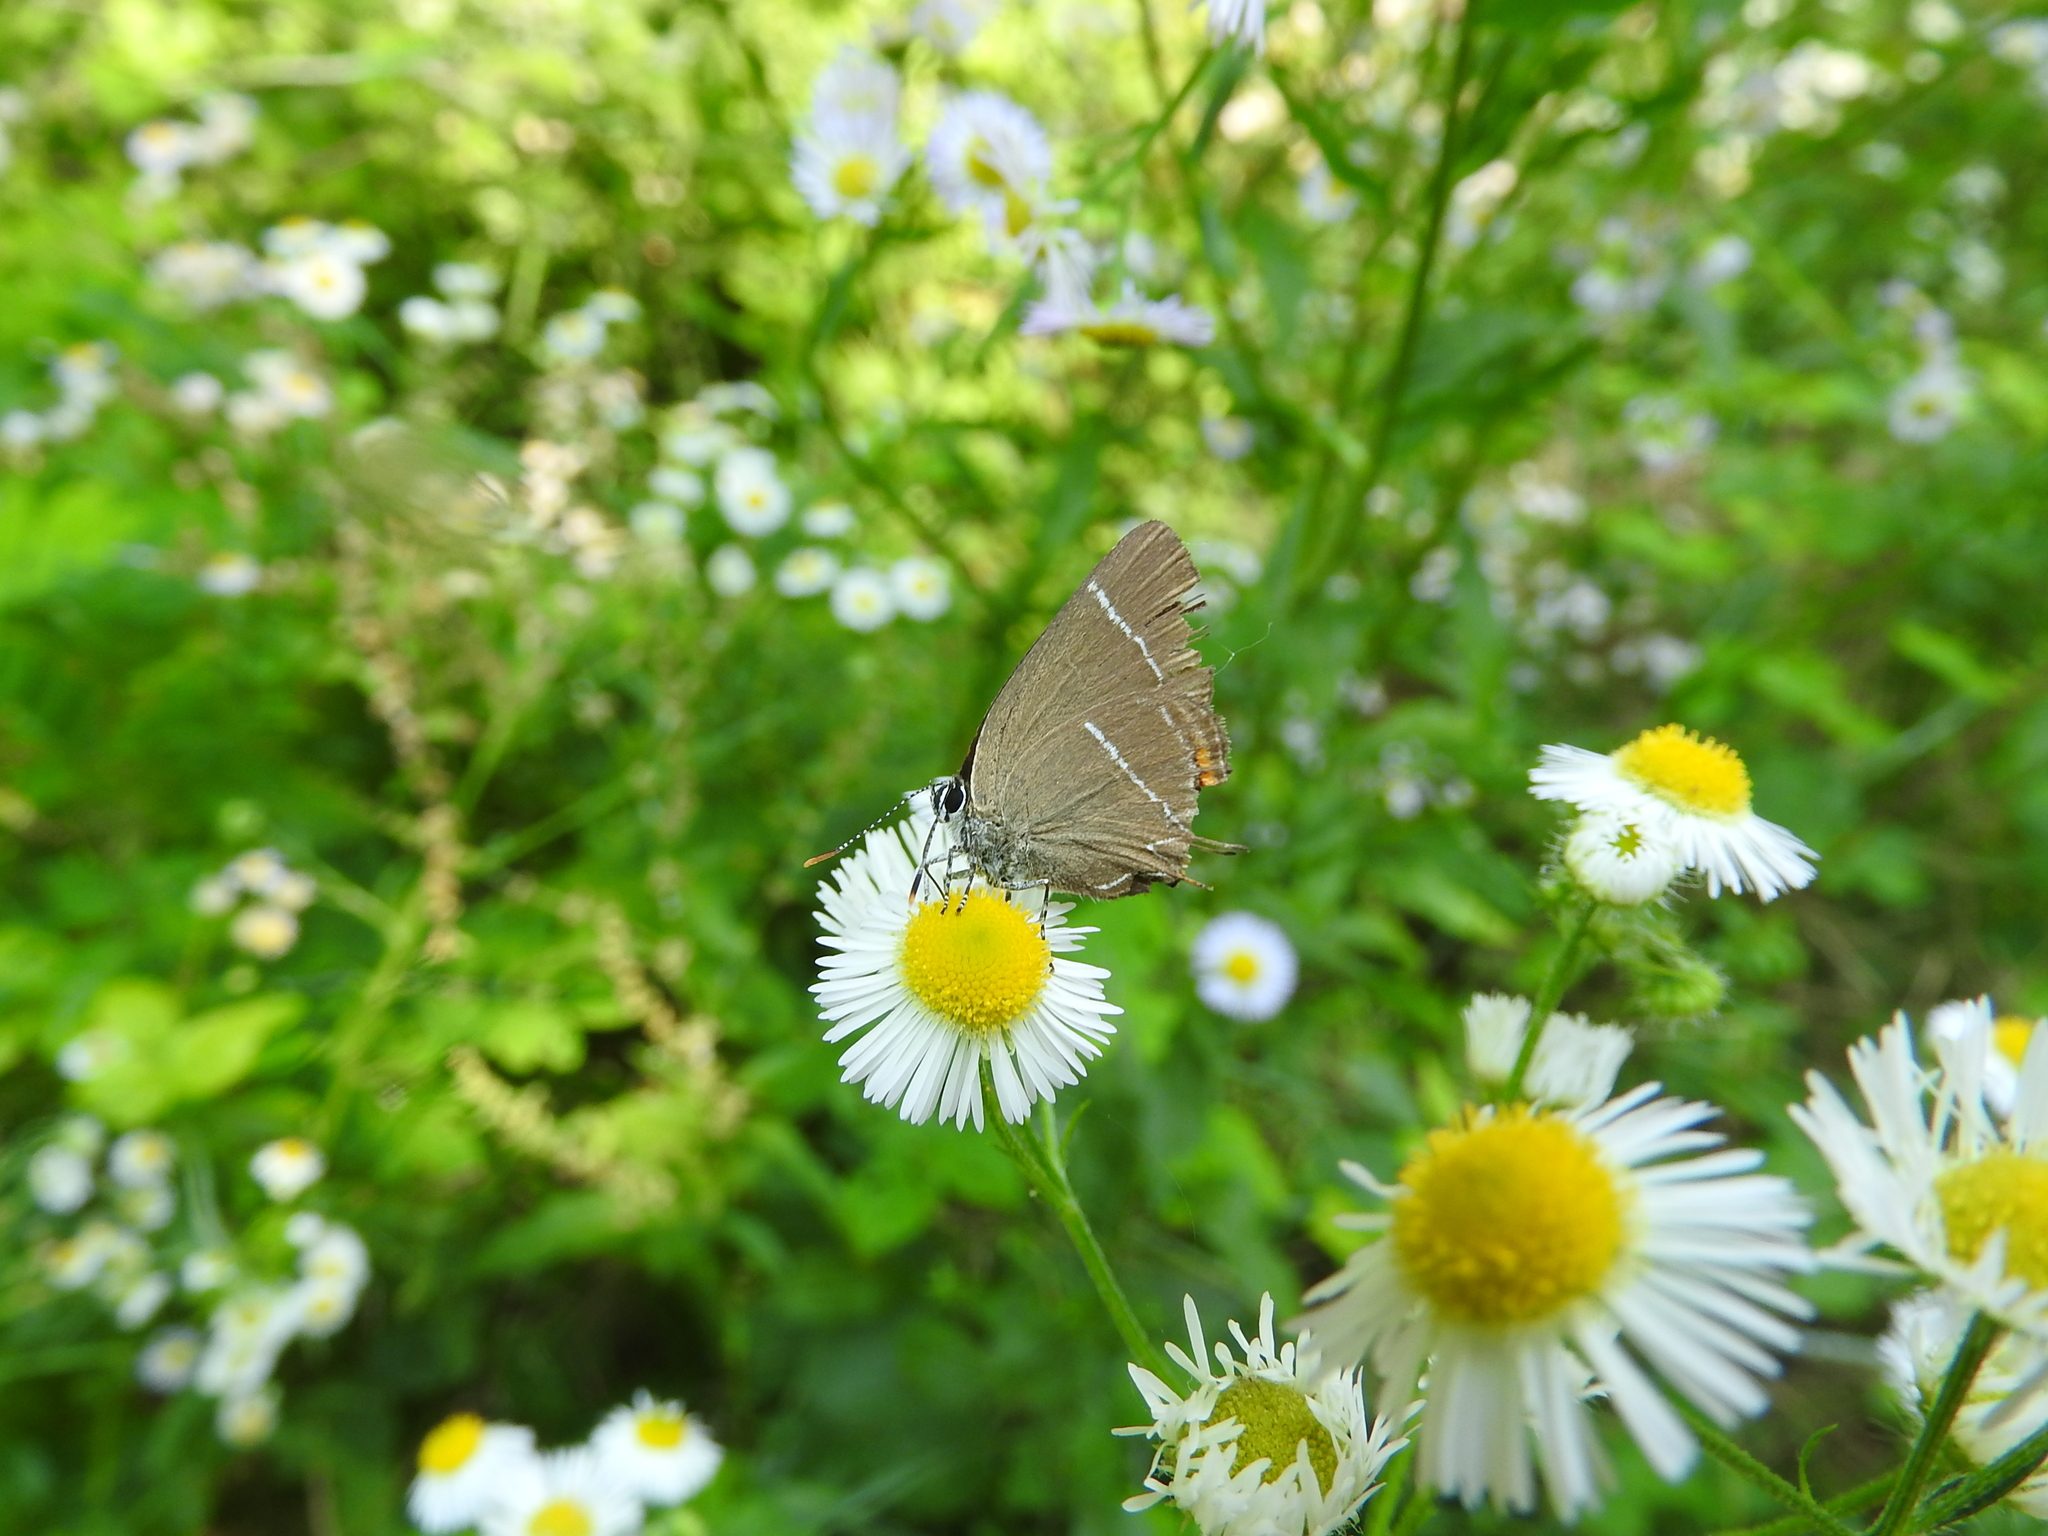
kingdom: Animalia
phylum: Arthropoda
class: Insecta
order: Lepidoptera
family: Lycaenidae
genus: Satyrium
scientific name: Satyrium w-album
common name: White-letter hairstreak
